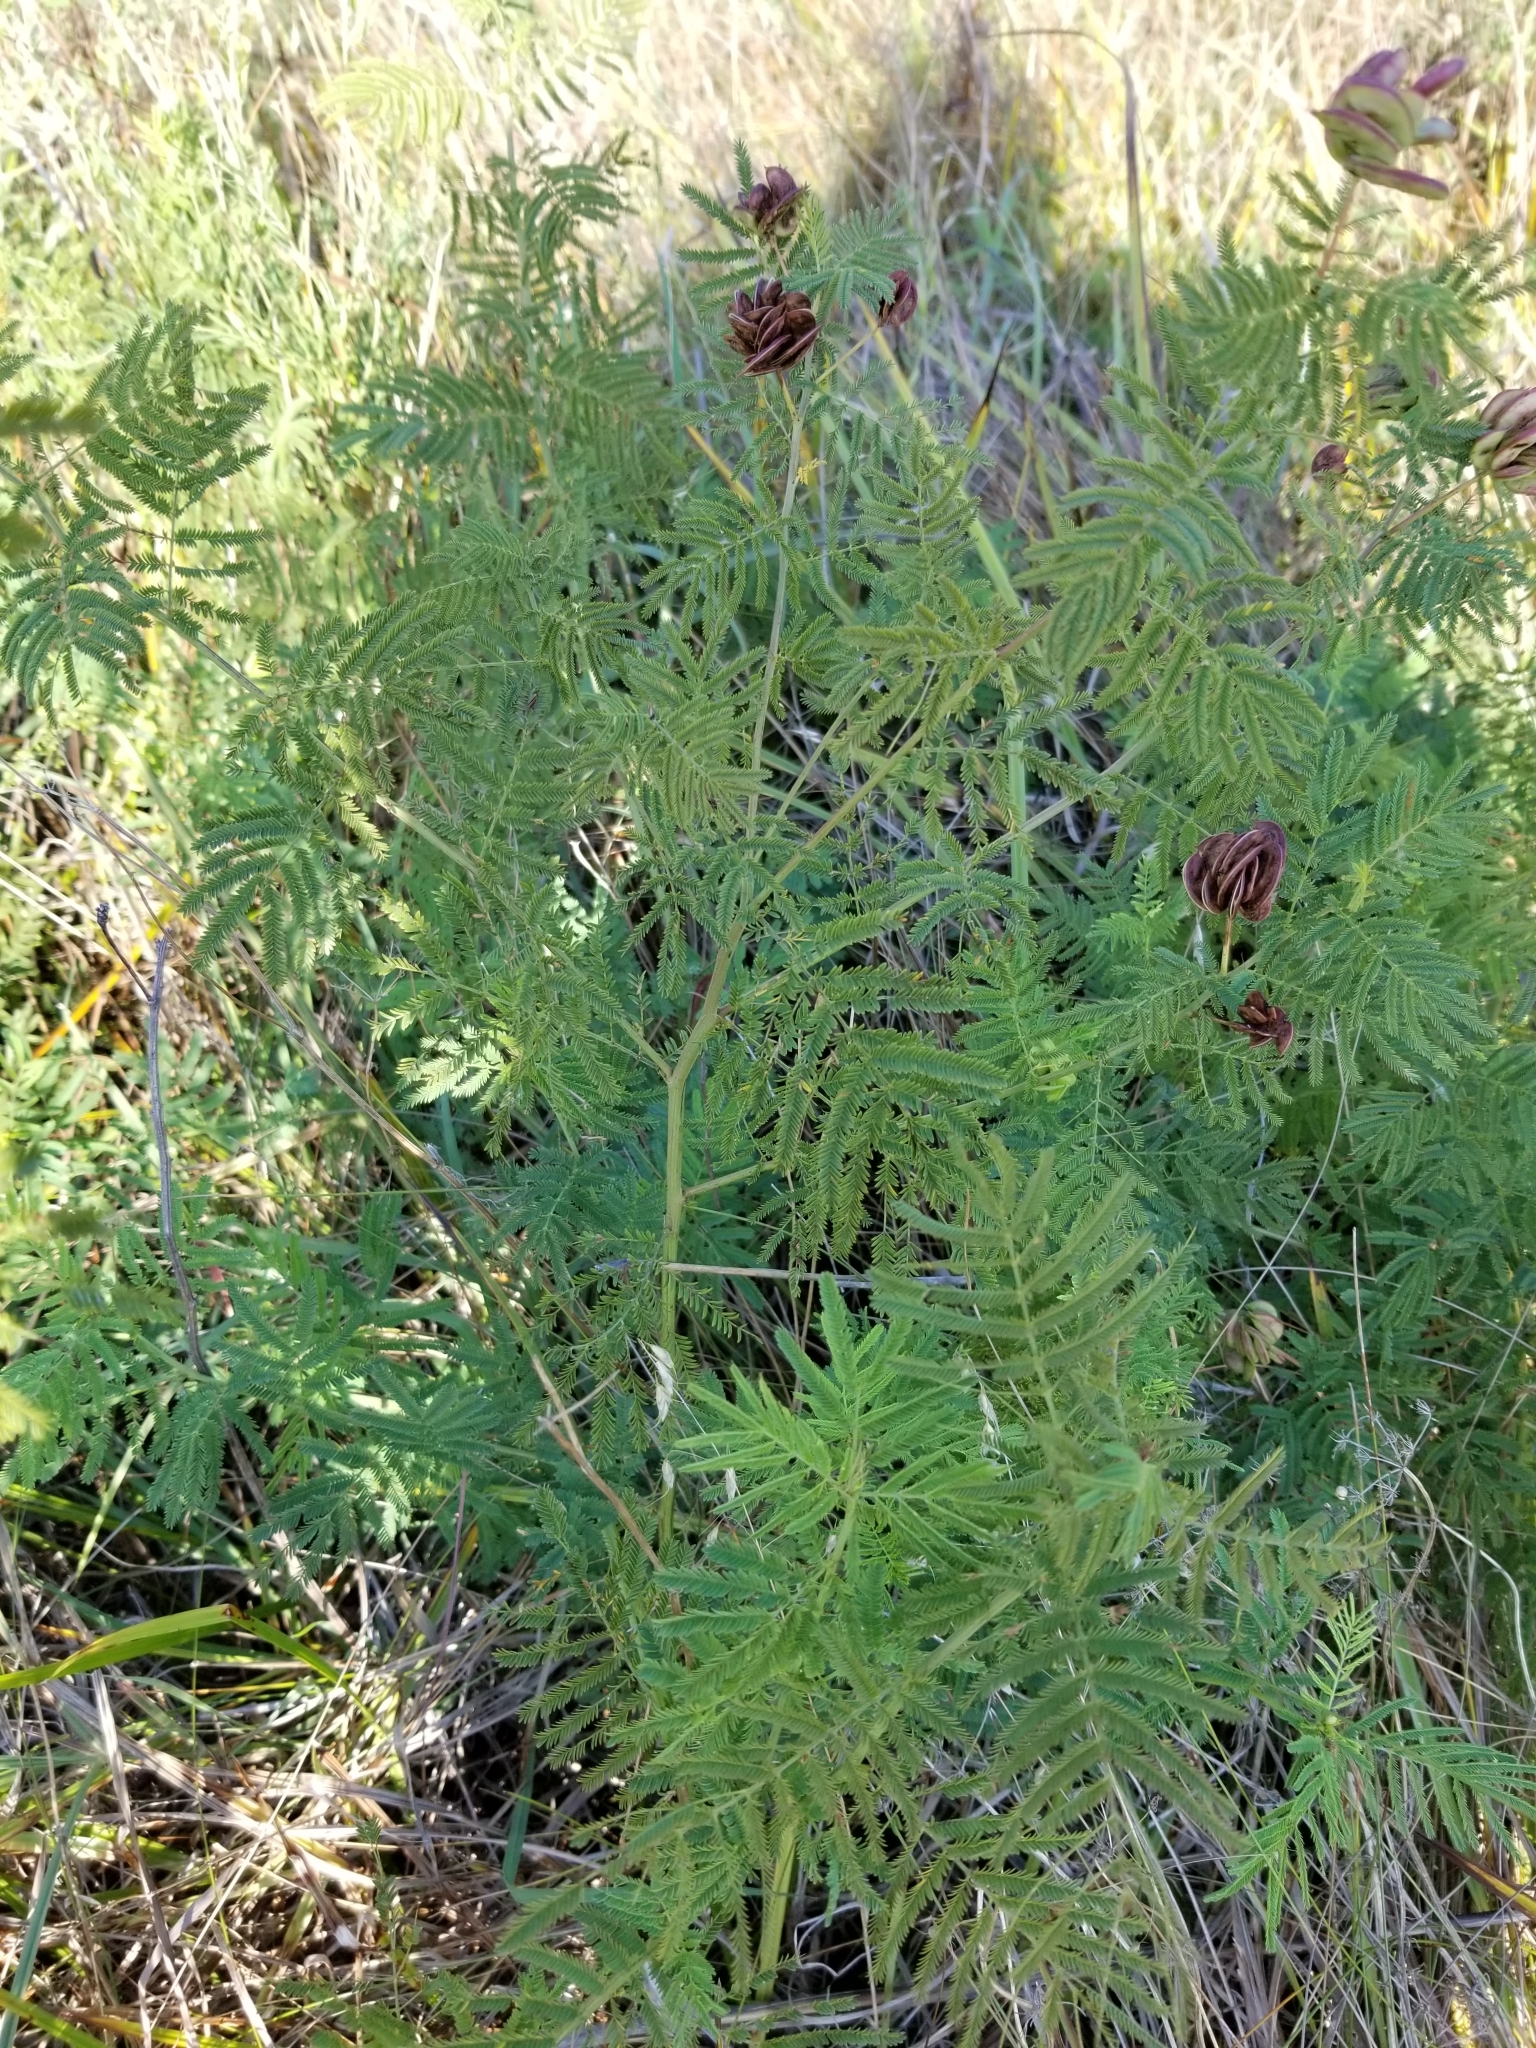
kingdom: Plantae
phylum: Tracheophyta
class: Magnoliopsida
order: Fabales
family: Fabaceae
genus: Desmanthus
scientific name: Desmanthus illinoensis
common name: Illinois bundle-flower
